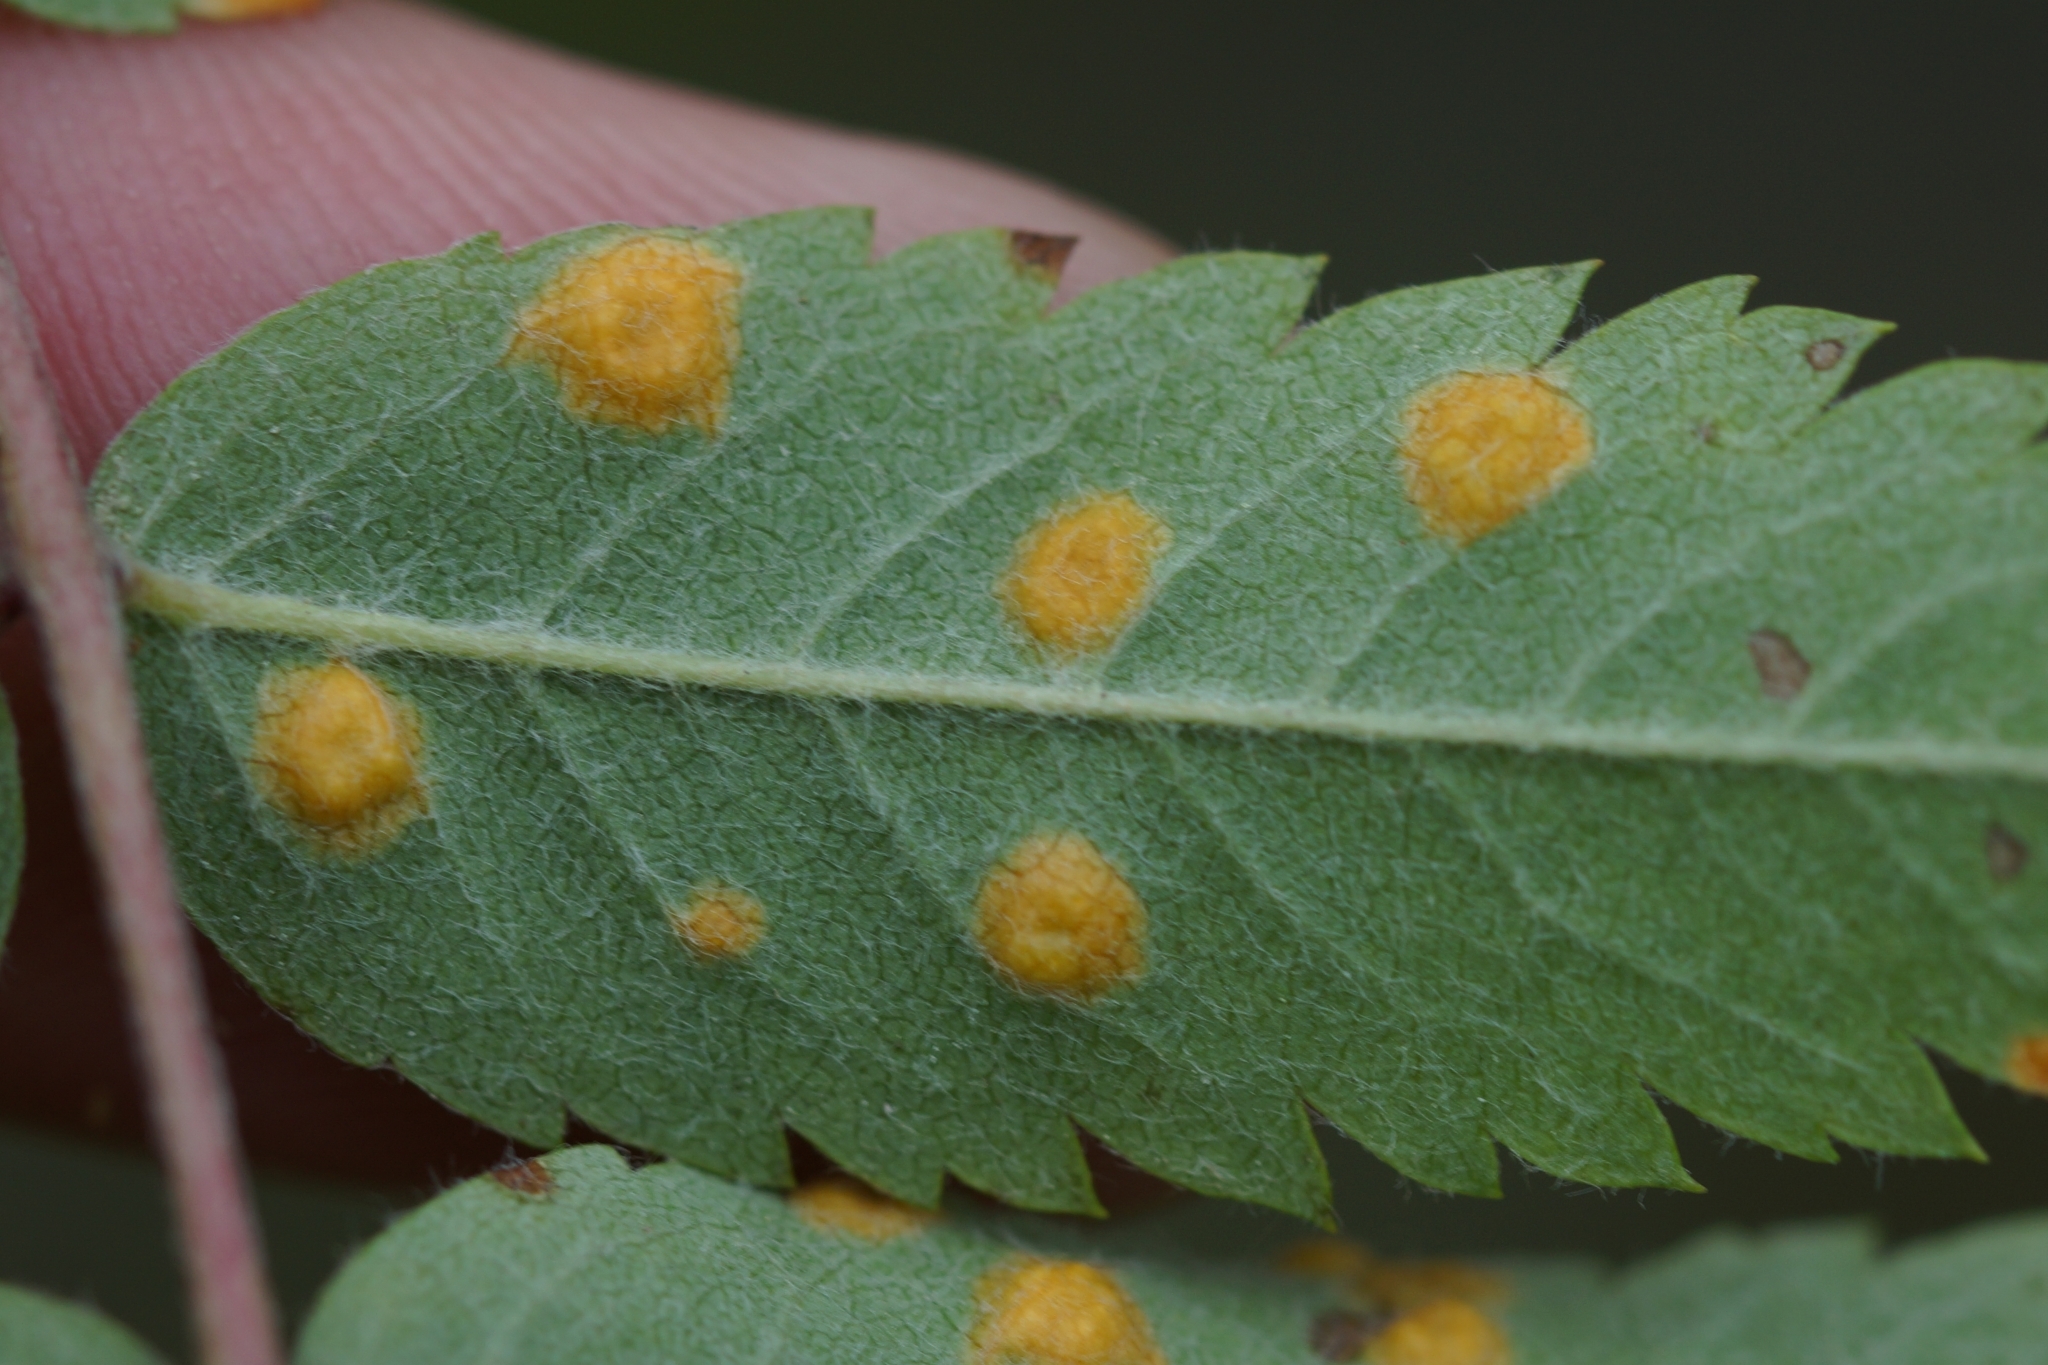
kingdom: Fungi
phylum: Basidiomycota
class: Pucciniomycetes
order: Pucciniales
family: Gymnosporangiaceae
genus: Gymnosporangium
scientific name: Gymnosporangium cornutum
